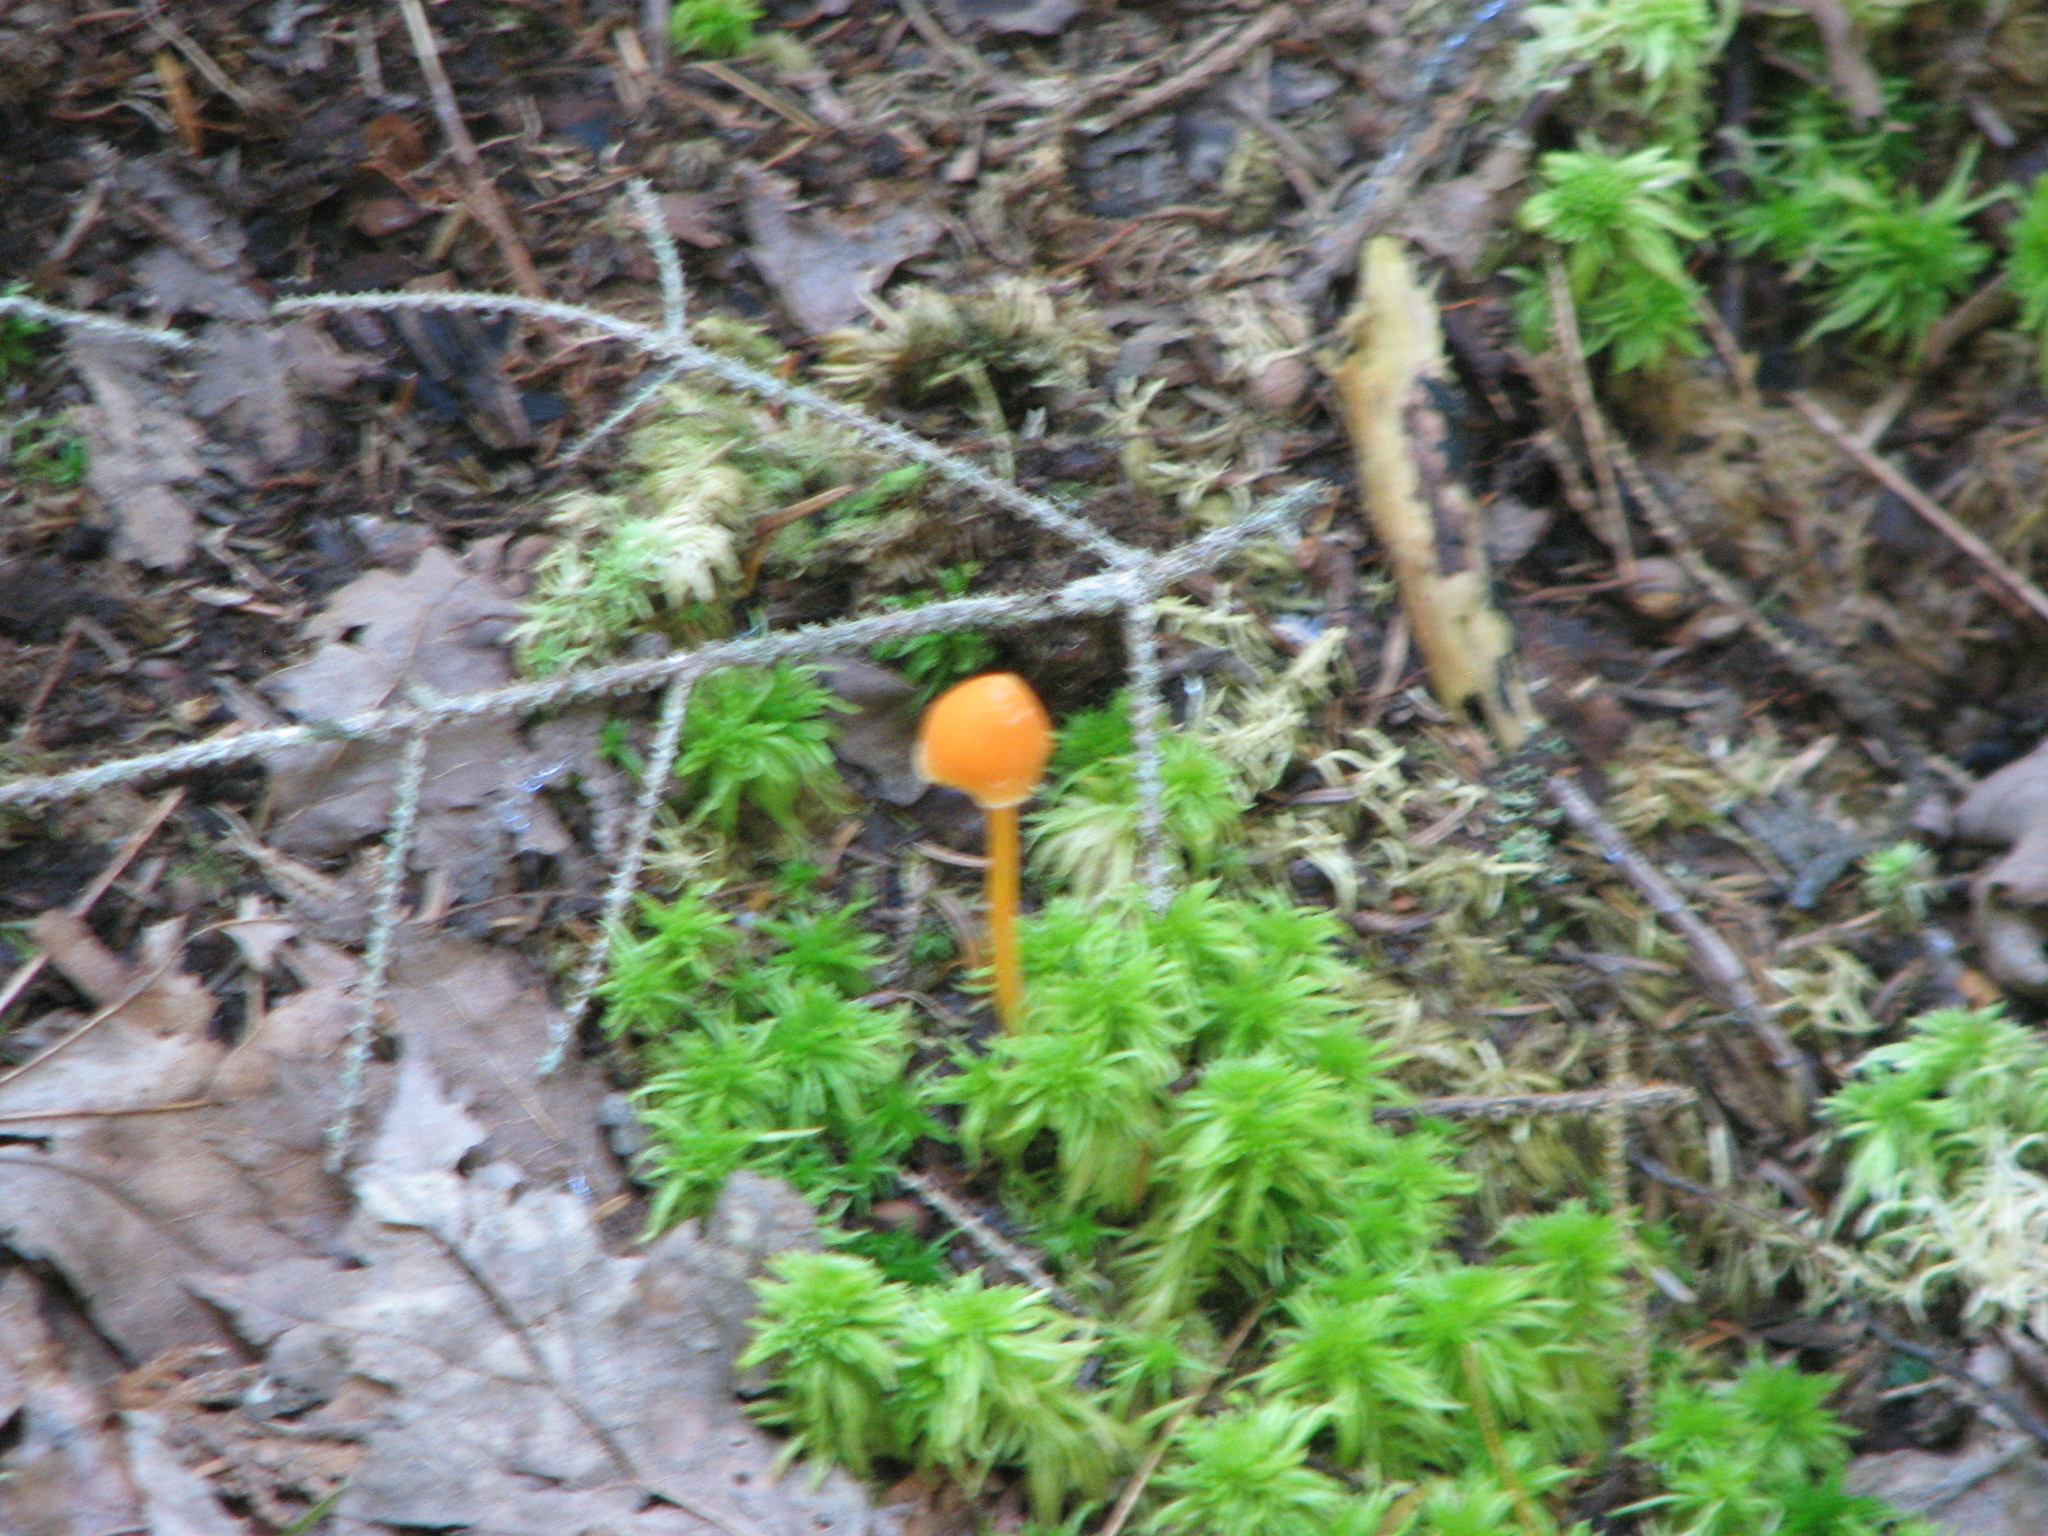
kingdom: Fungi
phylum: Basidiomycota
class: Agaricomycetes
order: Agaricales
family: Entolomataceae
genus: Entoloma
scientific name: Entoloma quadratum
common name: Salmon pinkgill
